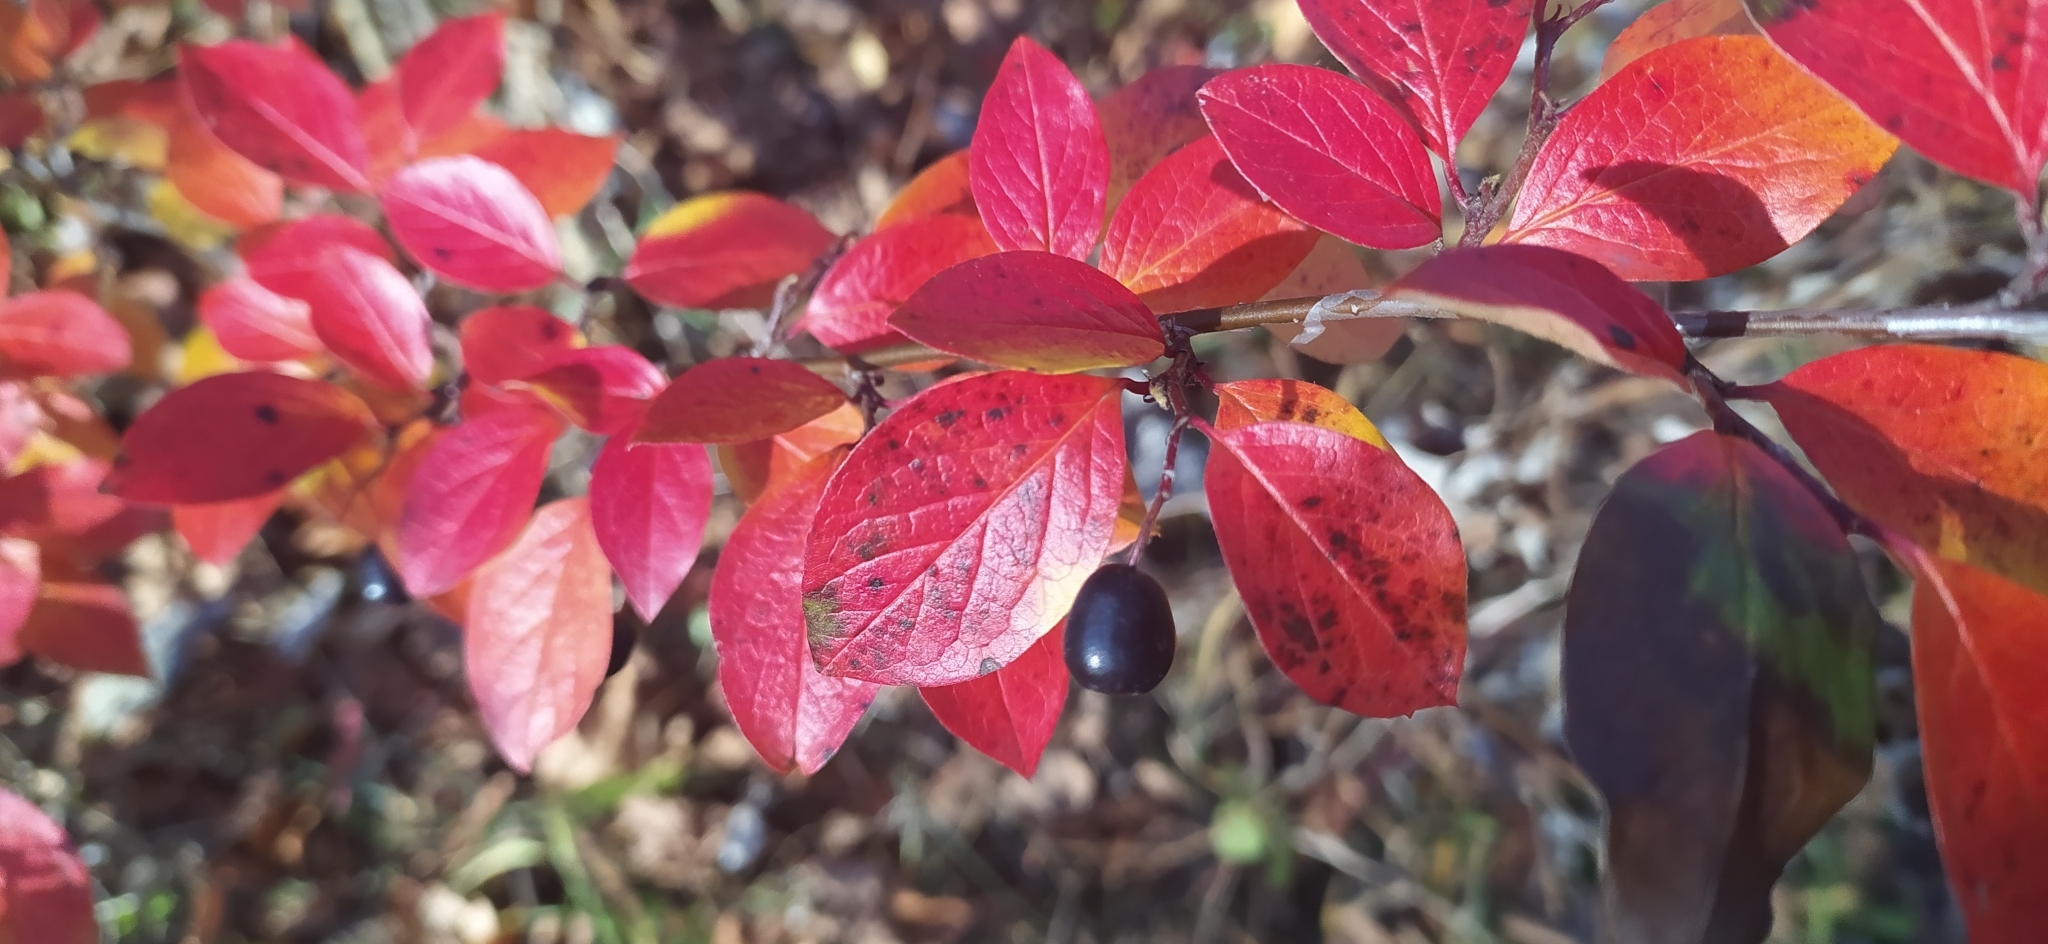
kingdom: Plantae
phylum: Tracheophyta
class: Magnoliopsida
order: Rosales
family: Rosaceae
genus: Cotoneaster
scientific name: Cotoneaster acutifolius
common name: Peking cotoneaster
